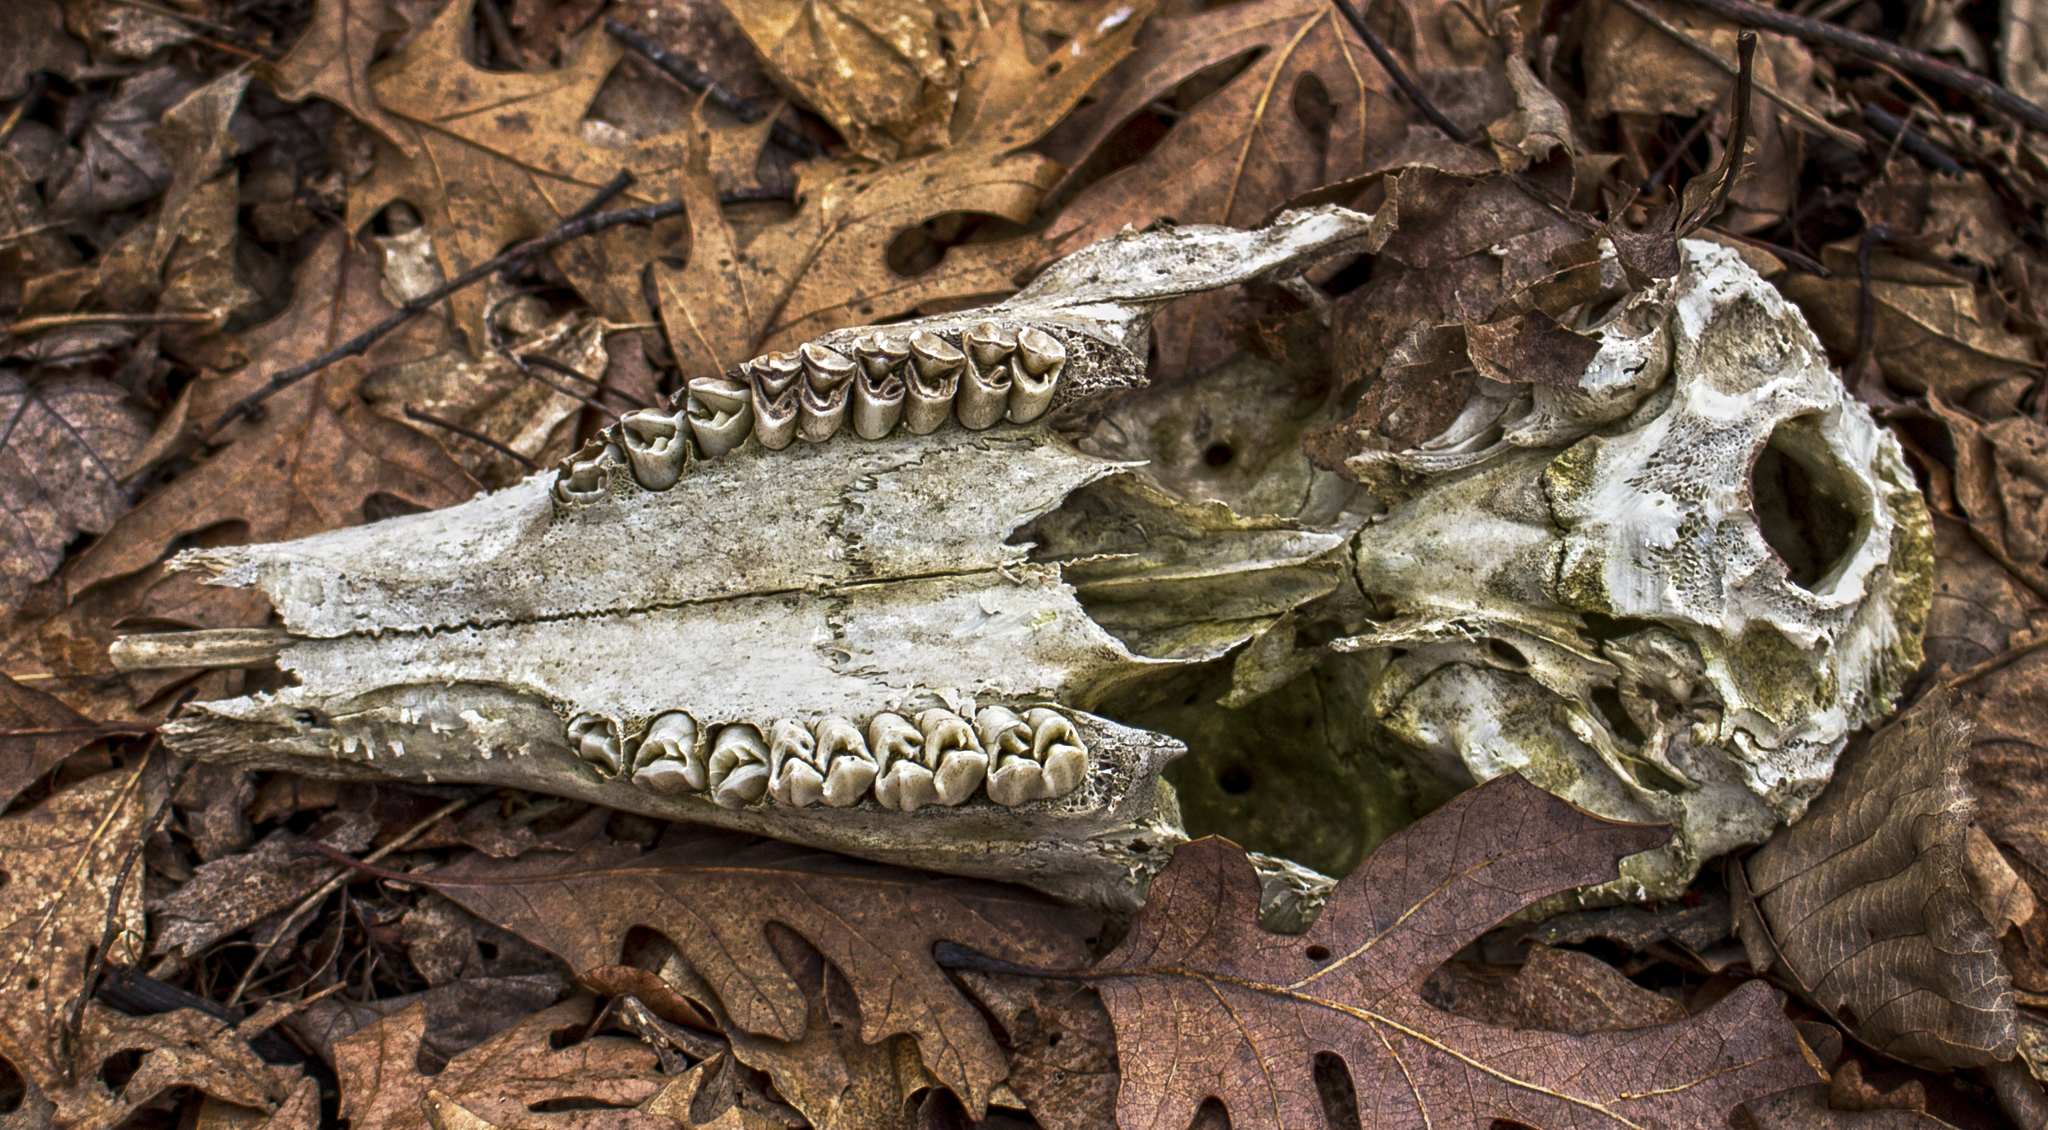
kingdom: Animalia
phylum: Chordata
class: Mammalia
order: Artiodactyla
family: Cervidae
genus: Odocoileus
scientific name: Odocoileus virginianus
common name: White-tailed deer
